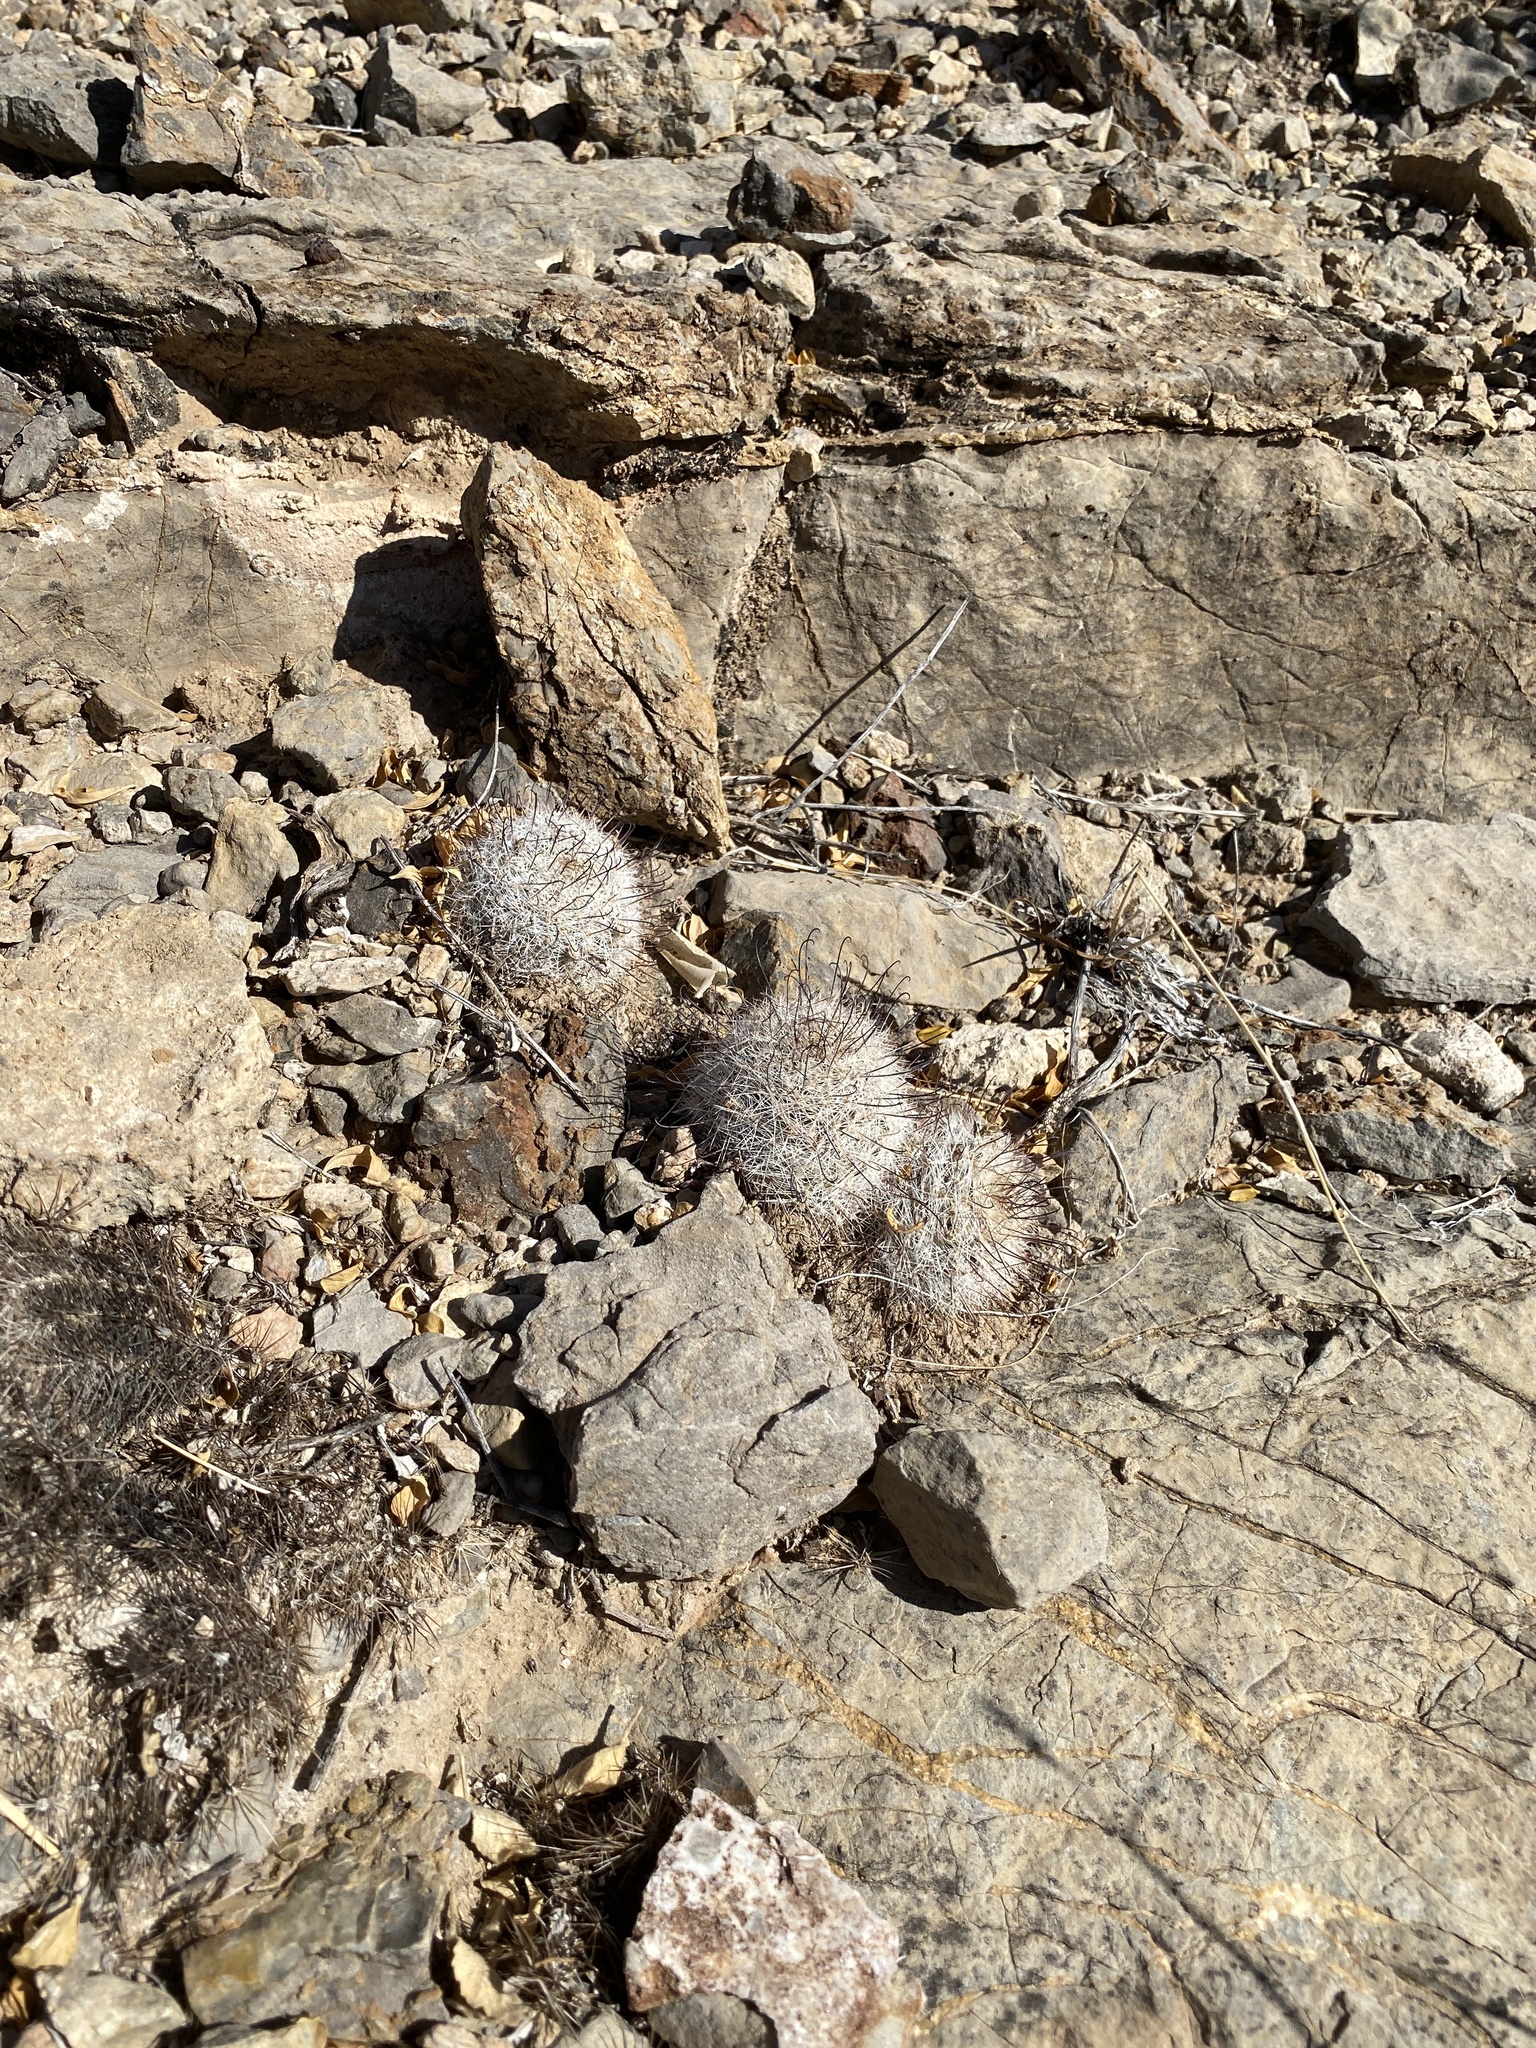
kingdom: Plantae
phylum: Tracheophyta
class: Magnoliopsida
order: Caryophyllales
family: Cactaceae
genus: Cochemiea
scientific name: Cochemiea grahamii
